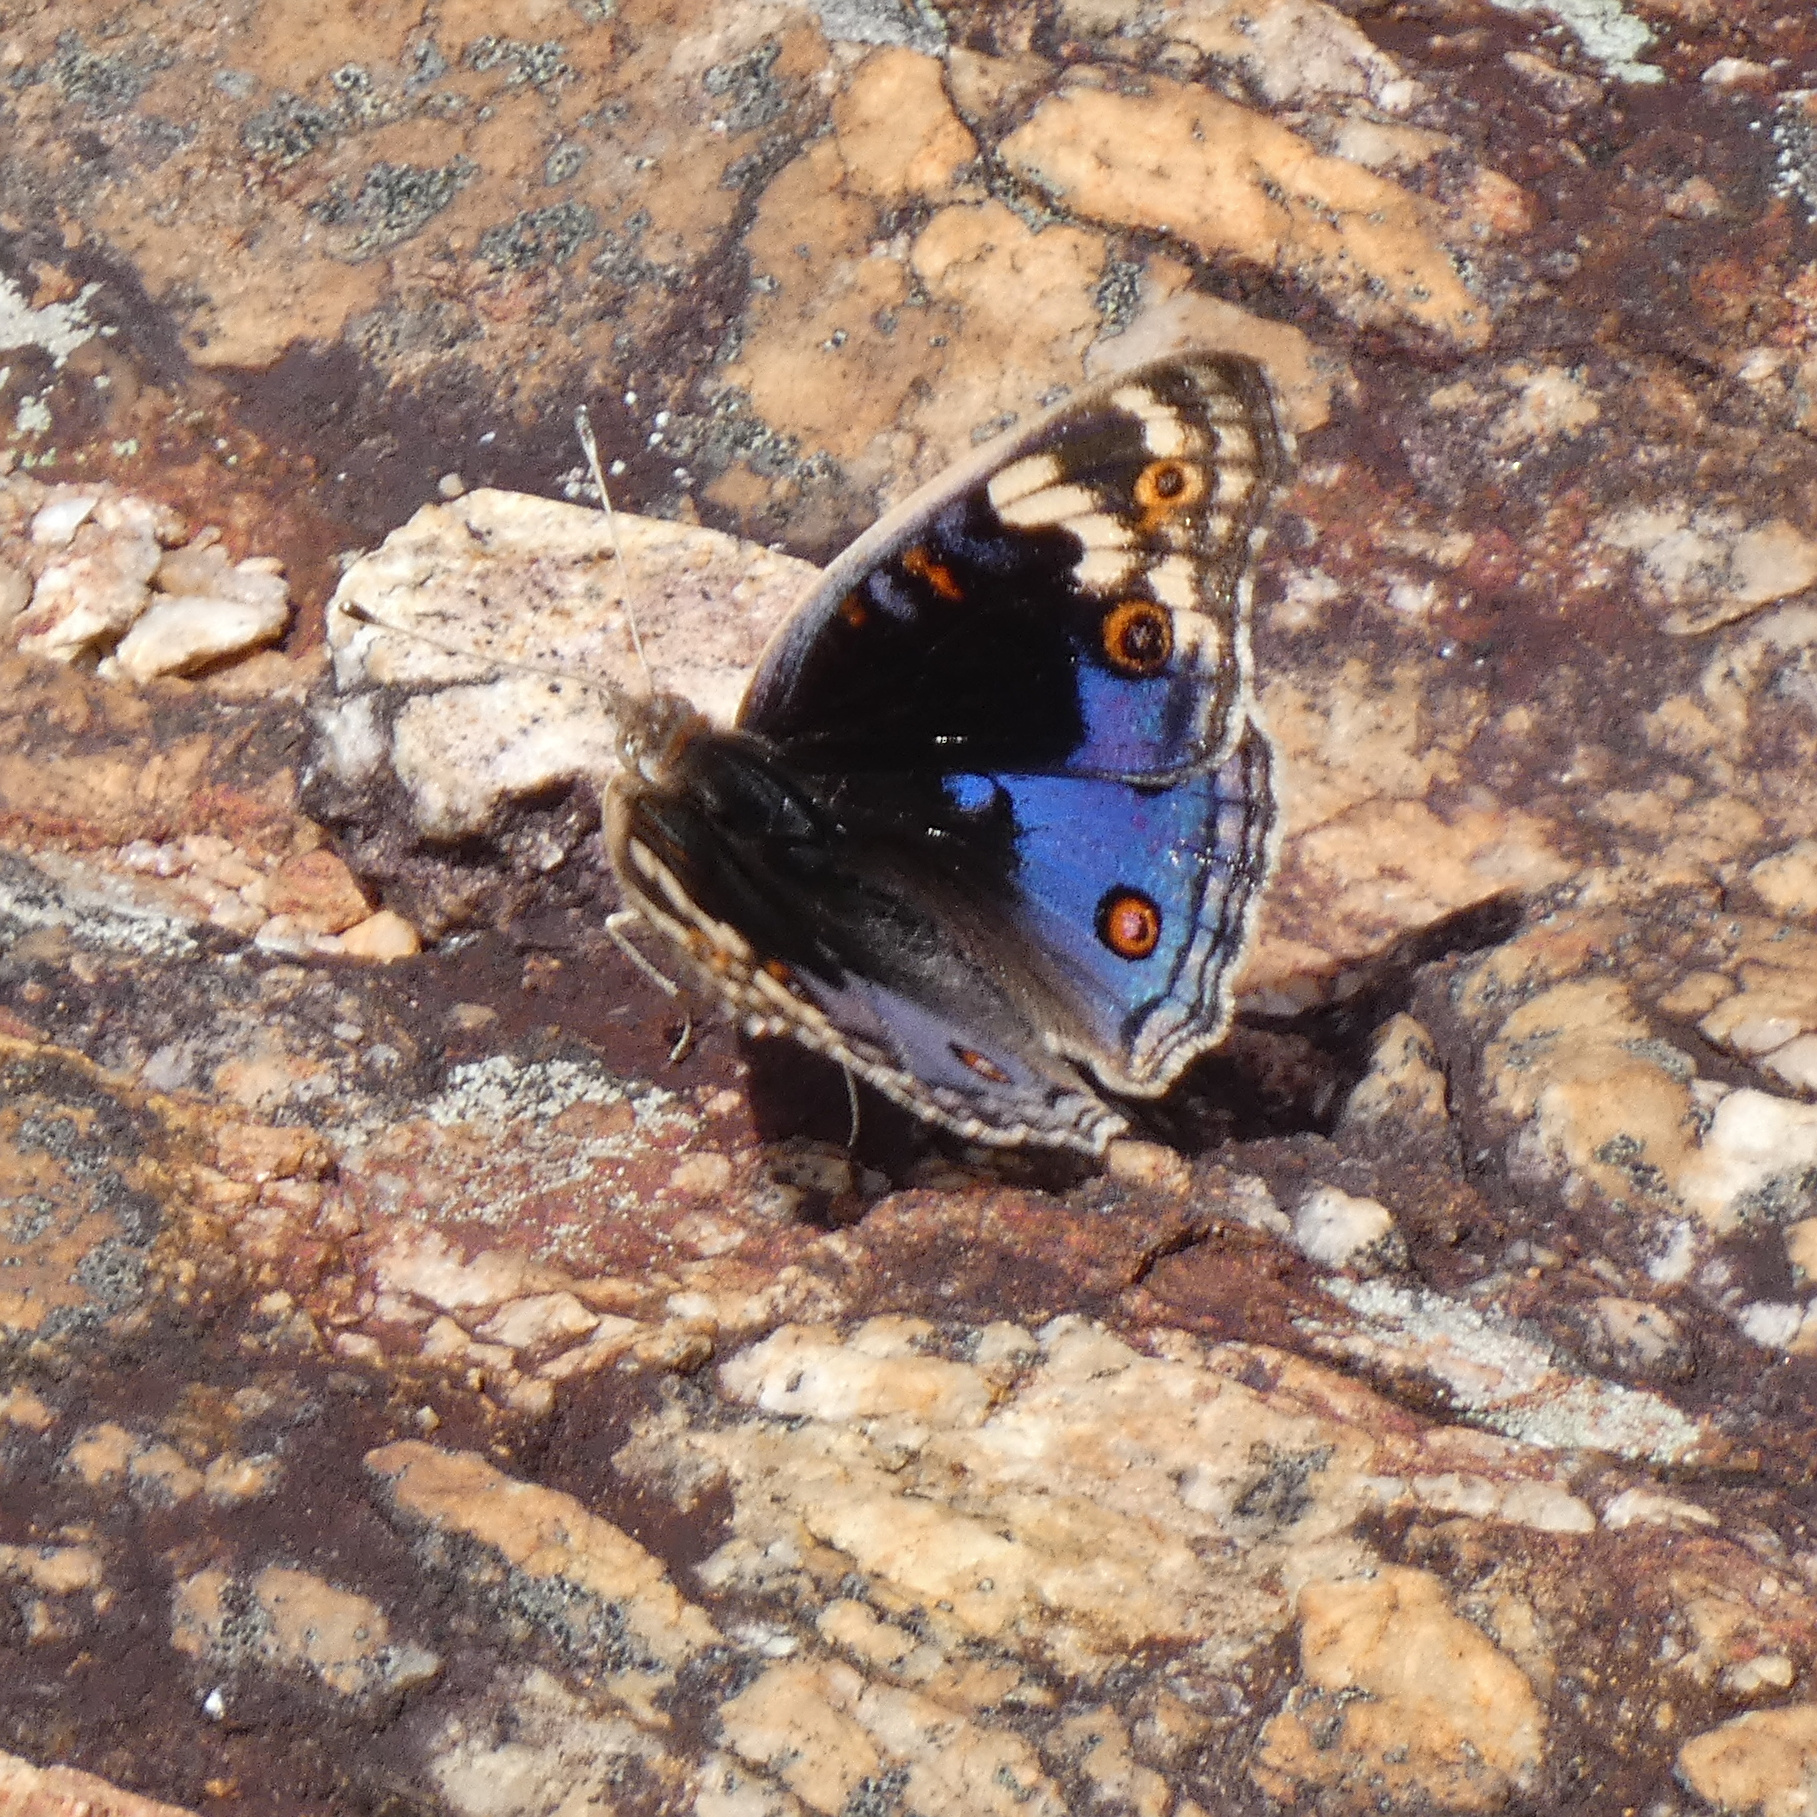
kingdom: Animalia
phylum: Arthropoda
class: Insecta
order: Lepidoptera
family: Nymphalidae
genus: Junonia
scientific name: Junonia orithya
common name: Blue pansy
